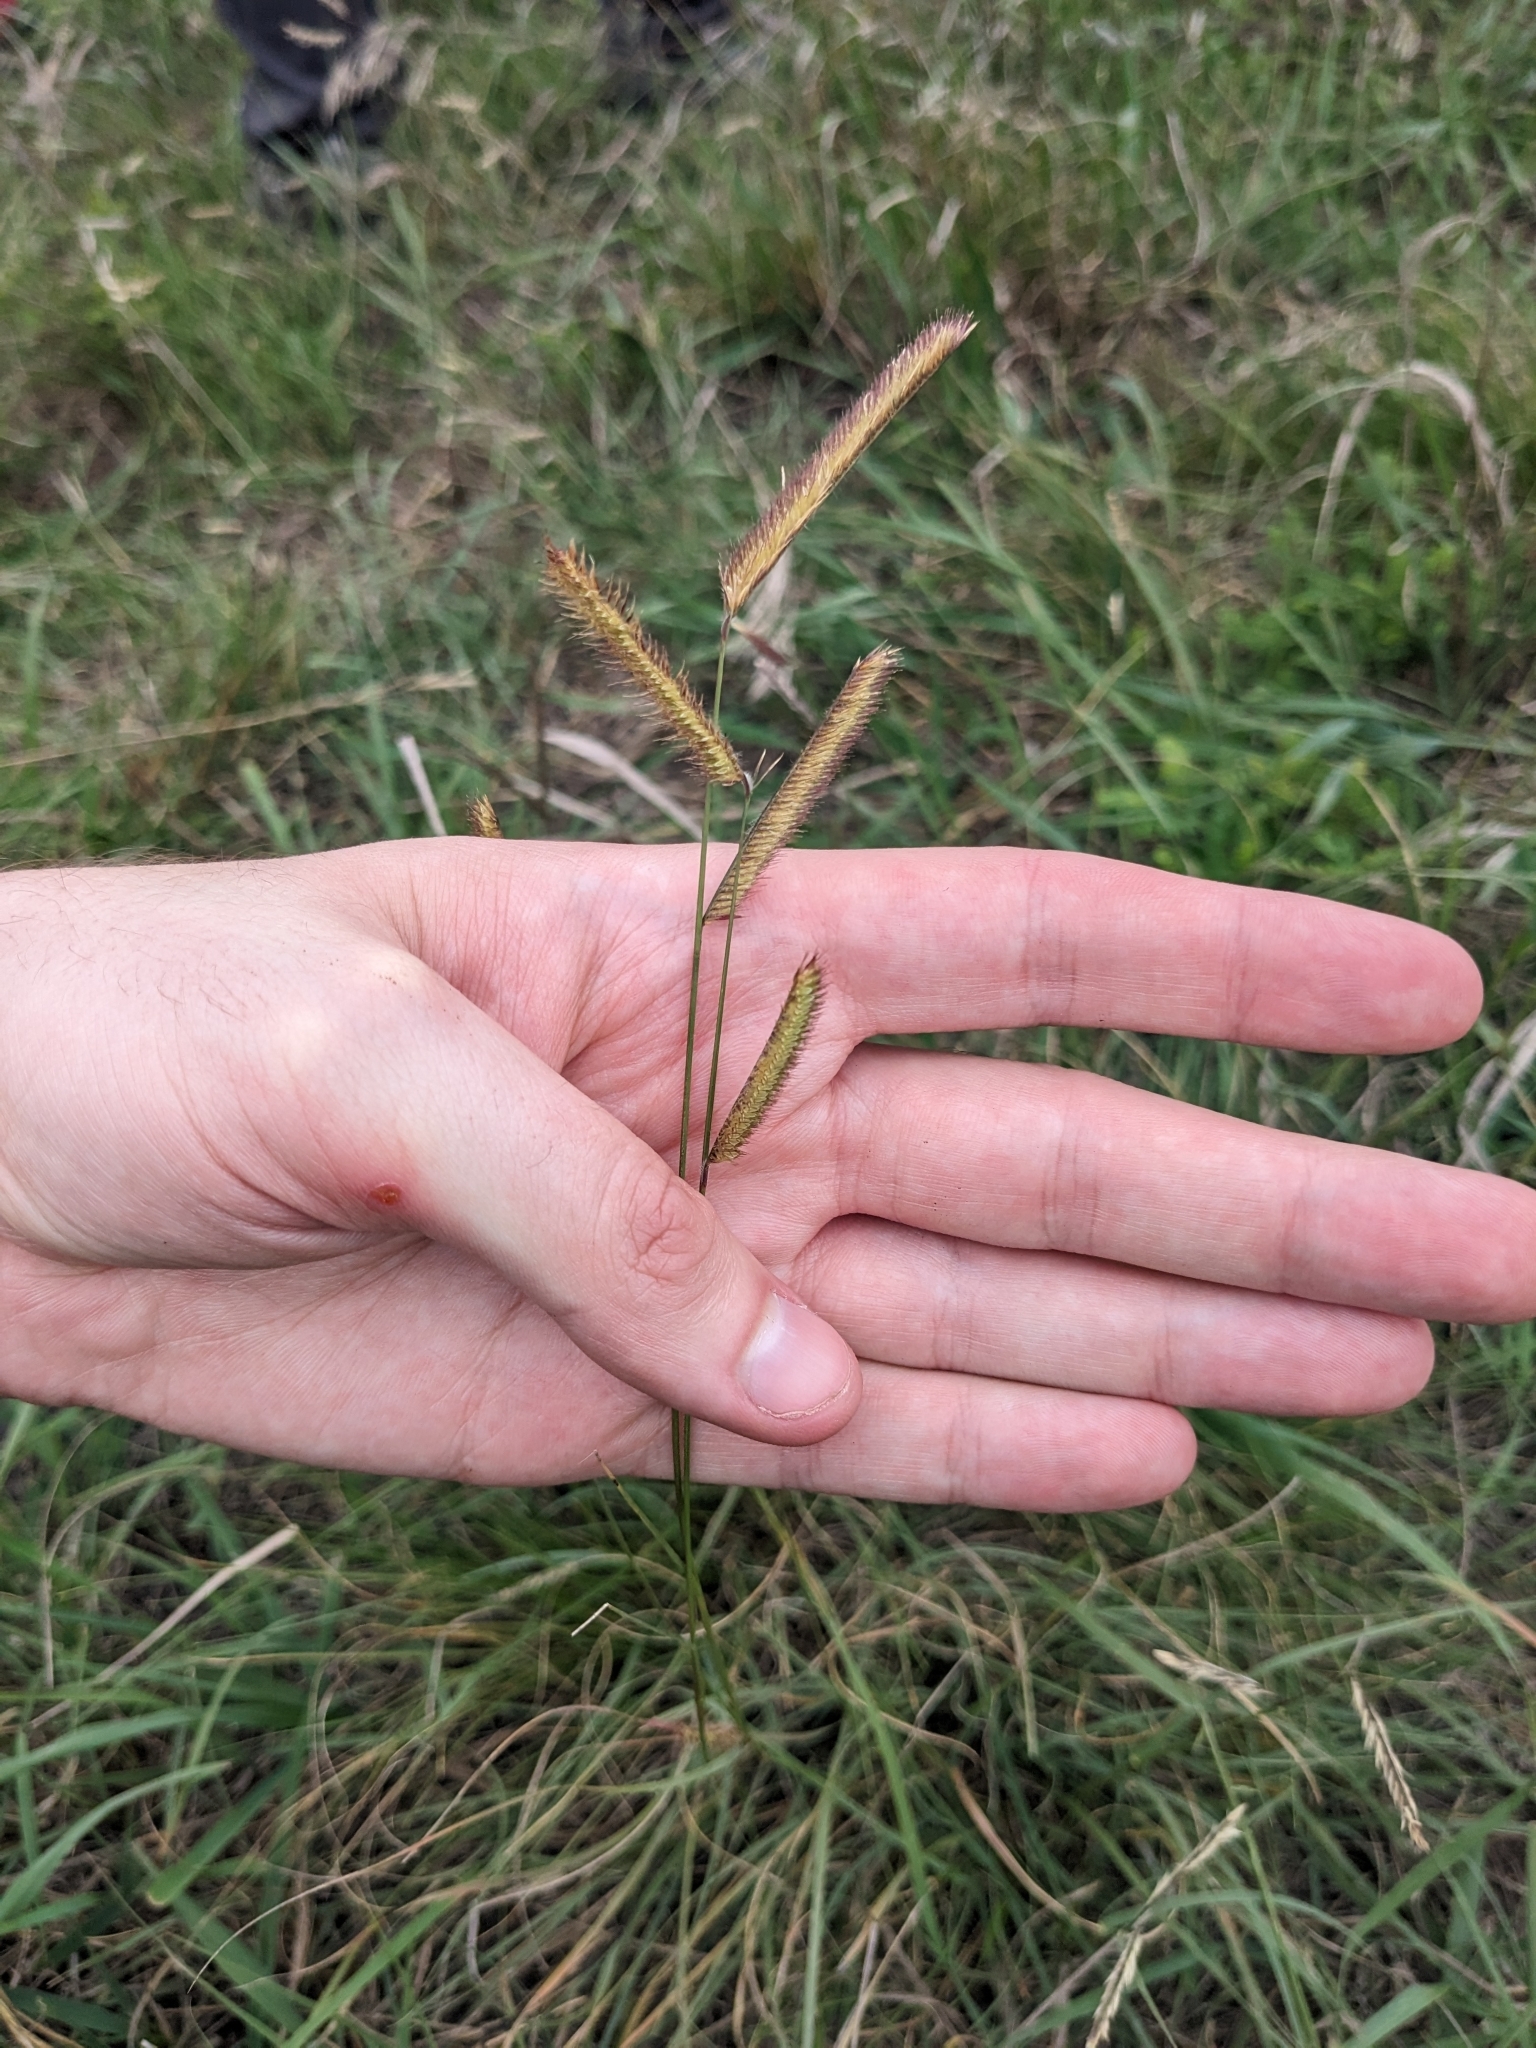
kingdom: Plantae
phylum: Tracheophyta
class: Liliopsida
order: Poales
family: Poaceae
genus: Bouteloua
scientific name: Bouteloua gracilis
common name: Blue grama
